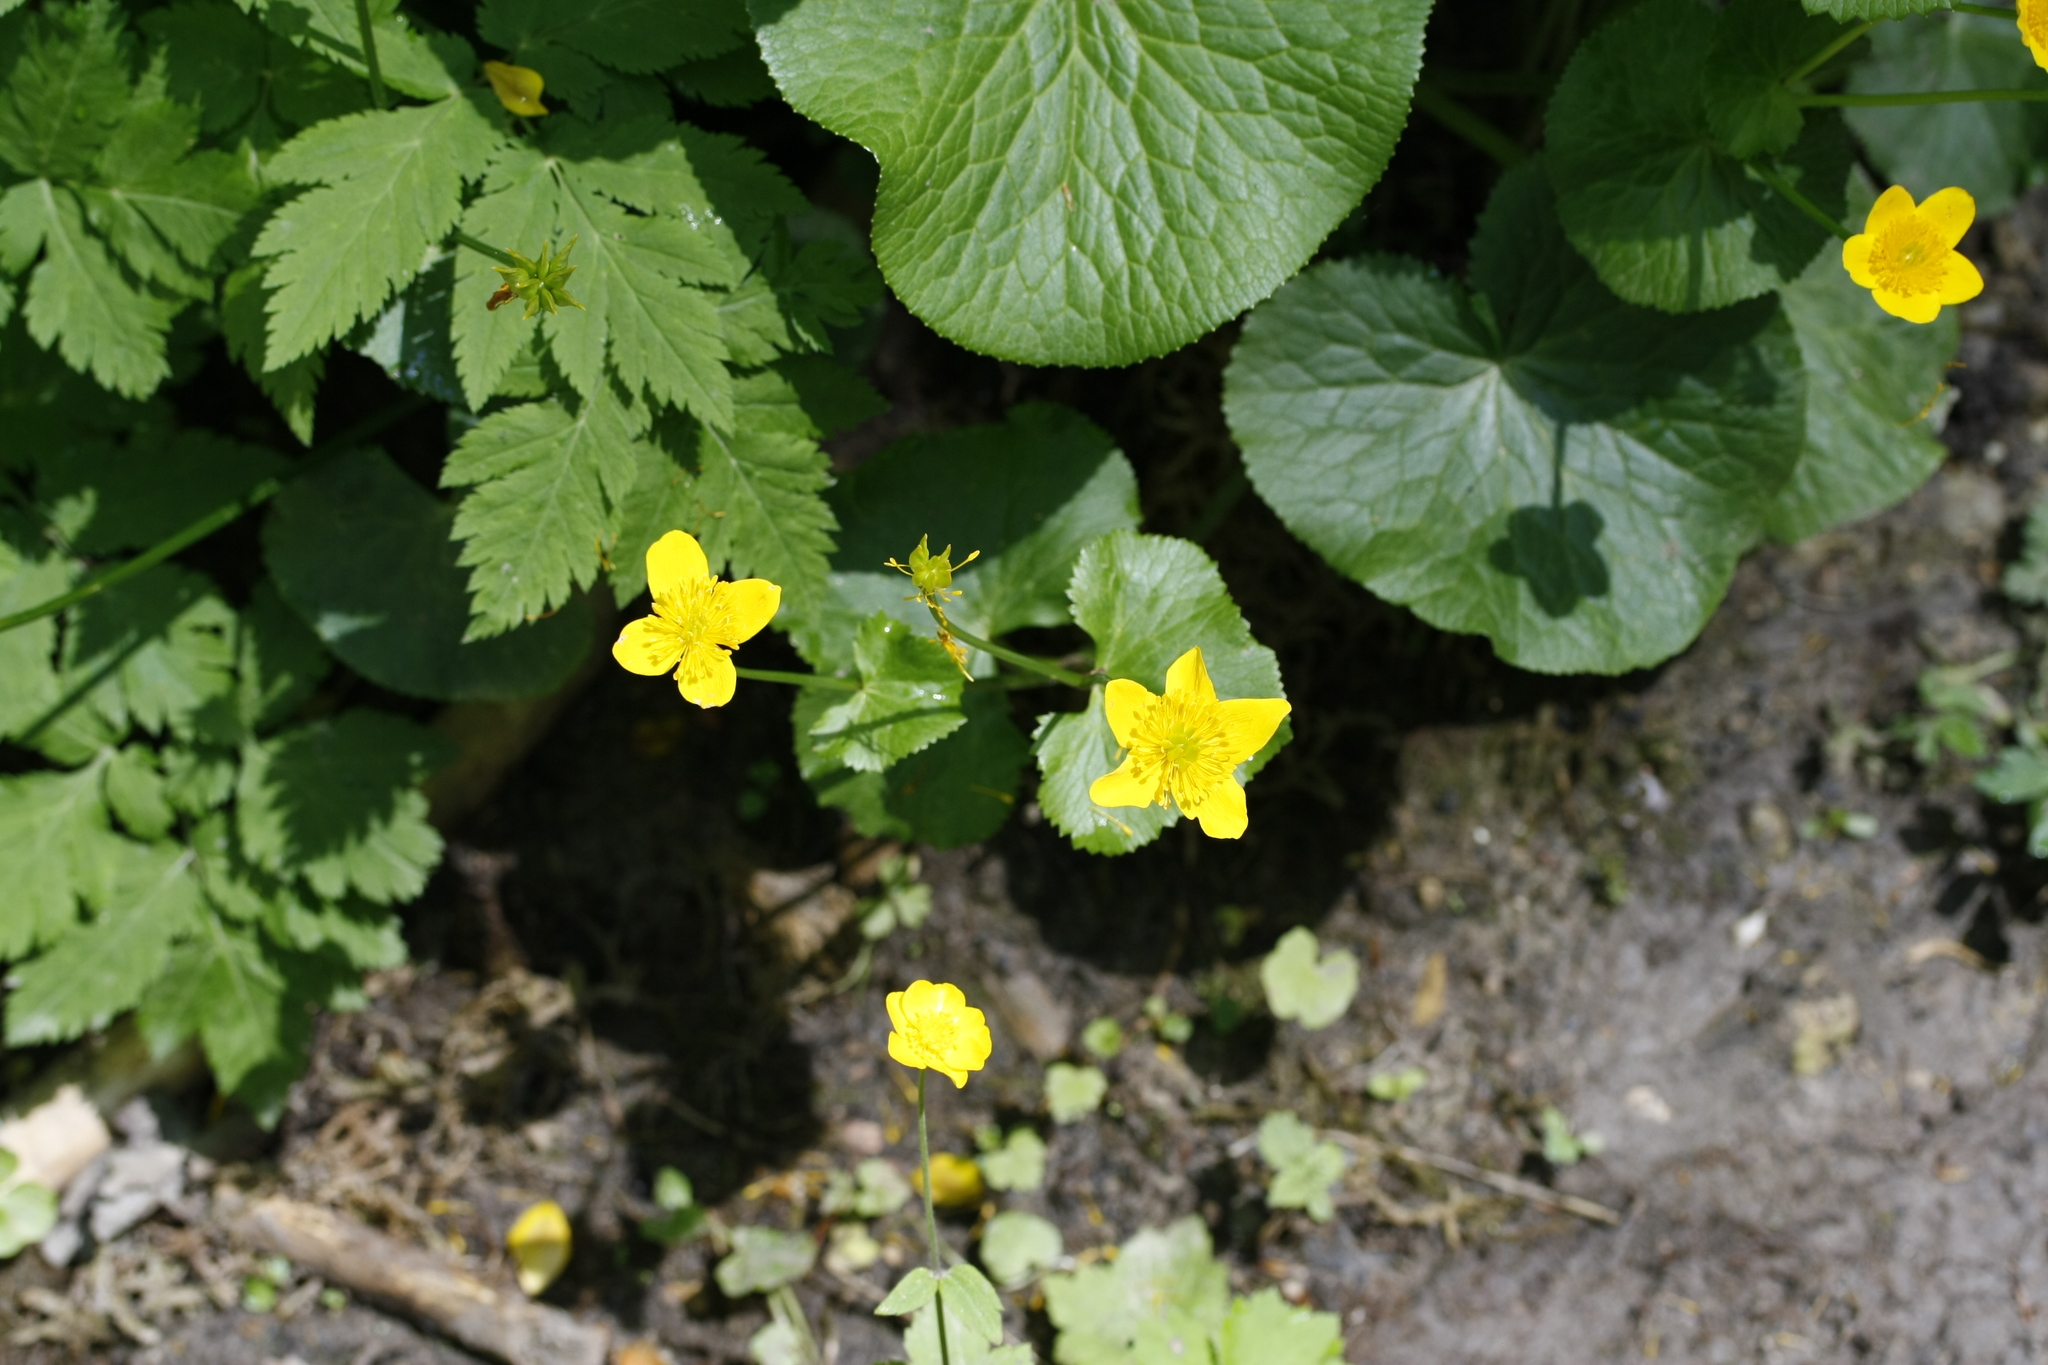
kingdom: Plantae
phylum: Tracheophyta
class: Magnoliopsida
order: Ranunculales
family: Ranunculaceae
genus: Caltha
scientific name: Caltha palustris
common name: Marsh marigold
